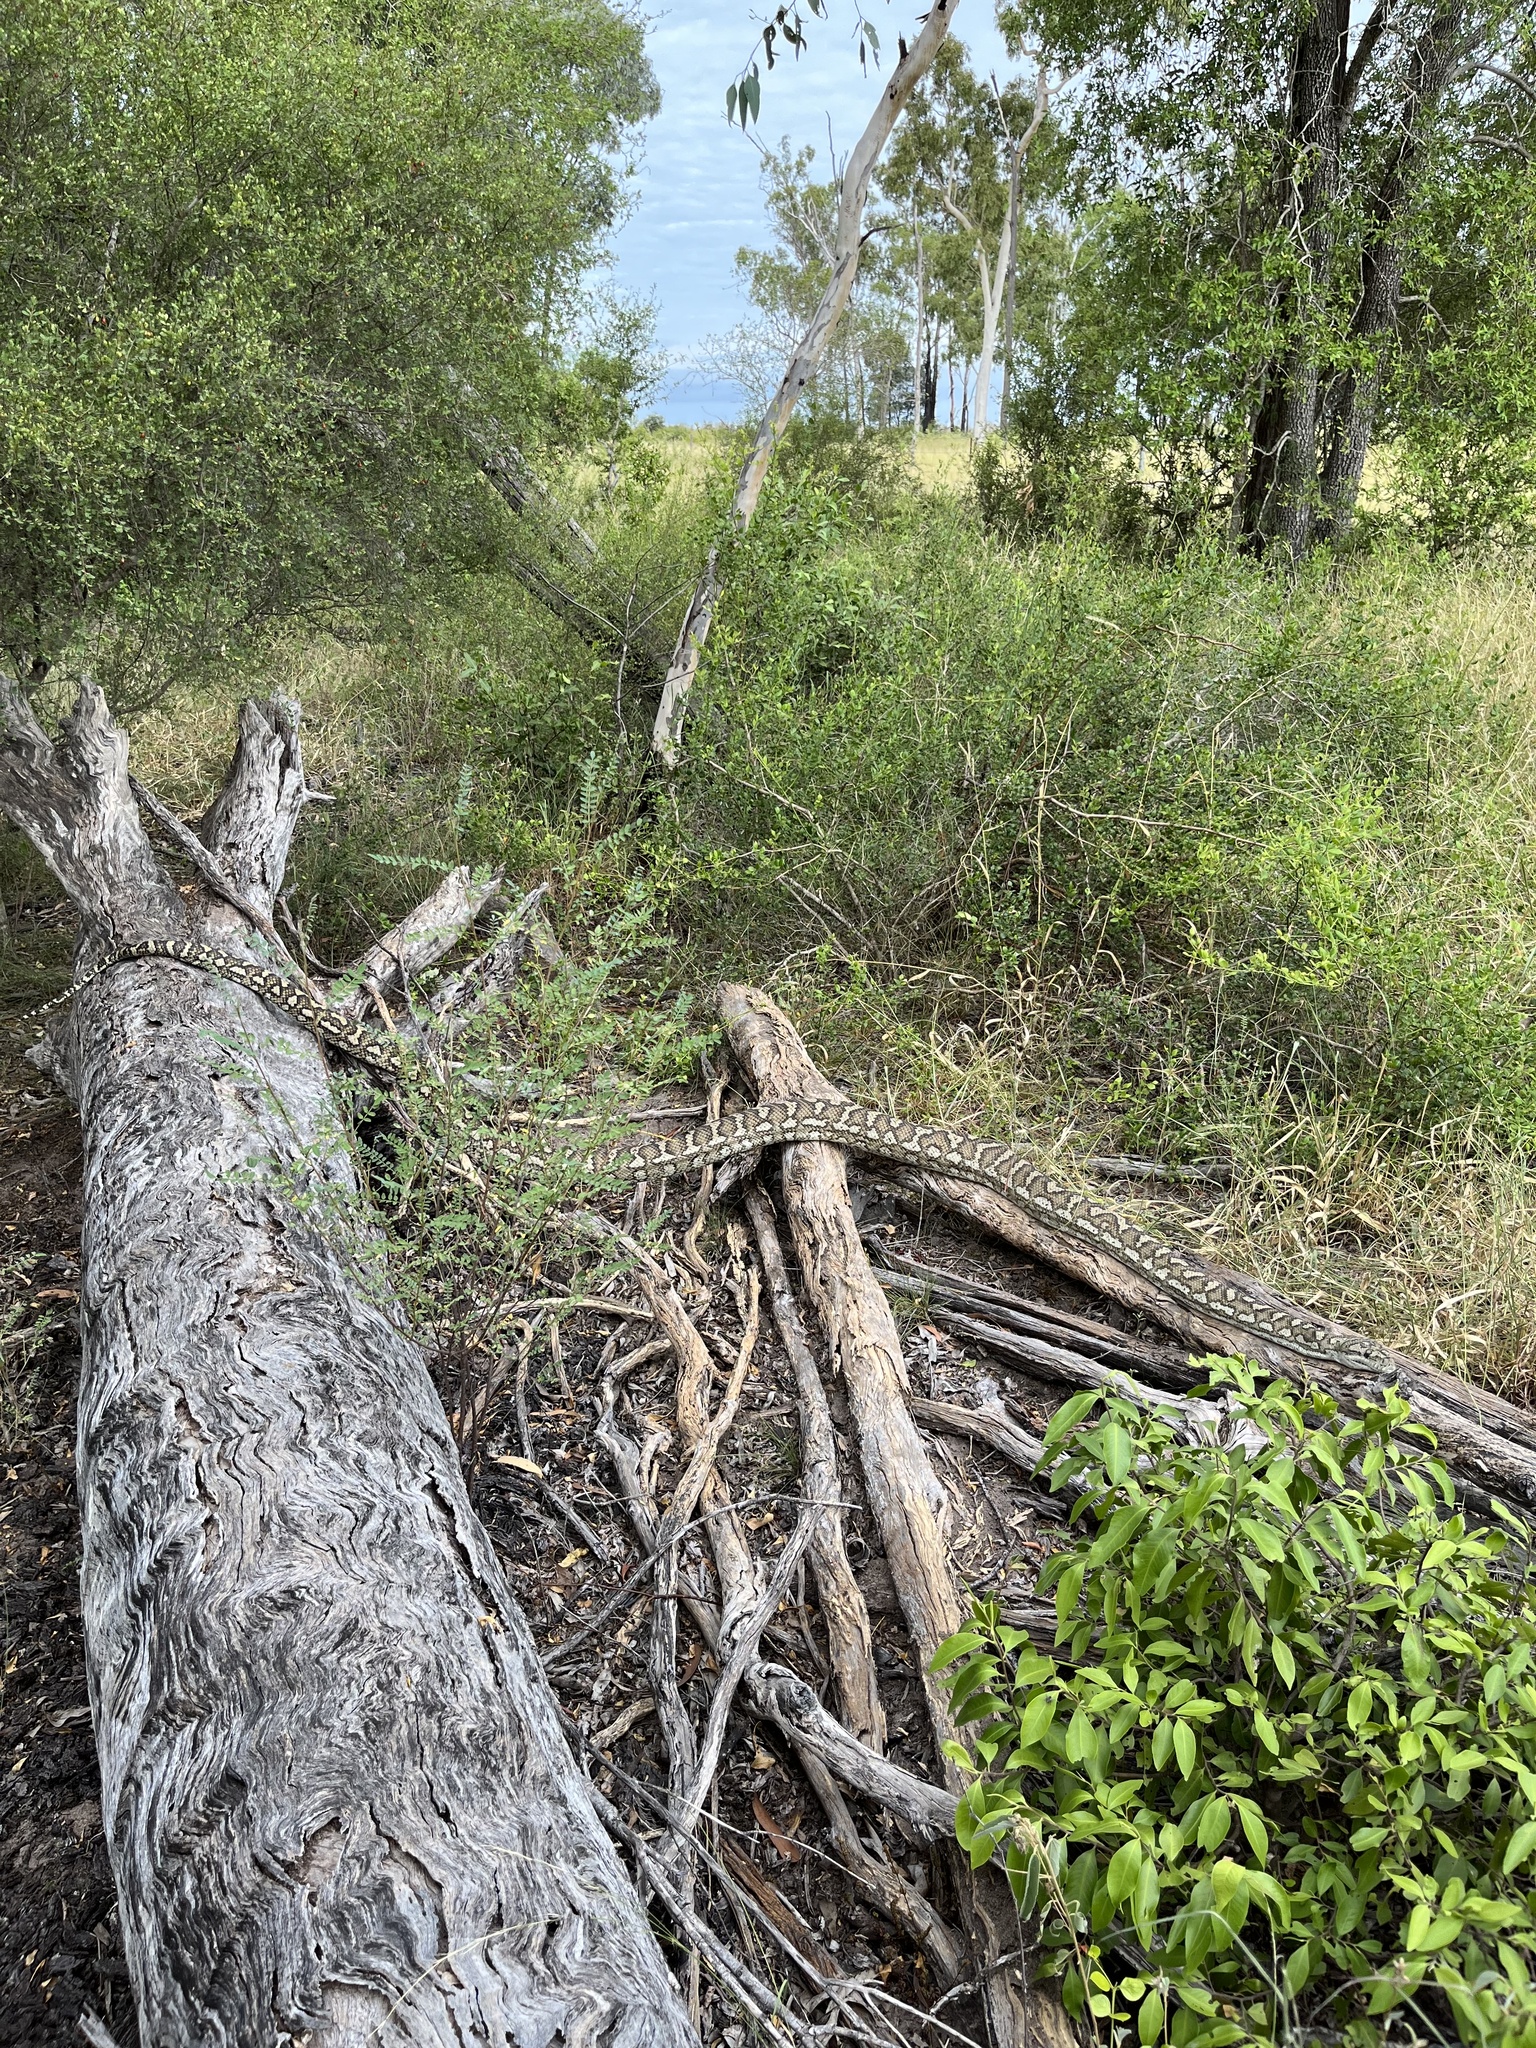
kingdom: Animalia
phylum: Chordata
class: Squamata
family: Pythonidae
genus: Morelia
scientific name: Morelia spilota
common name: Carpet python
